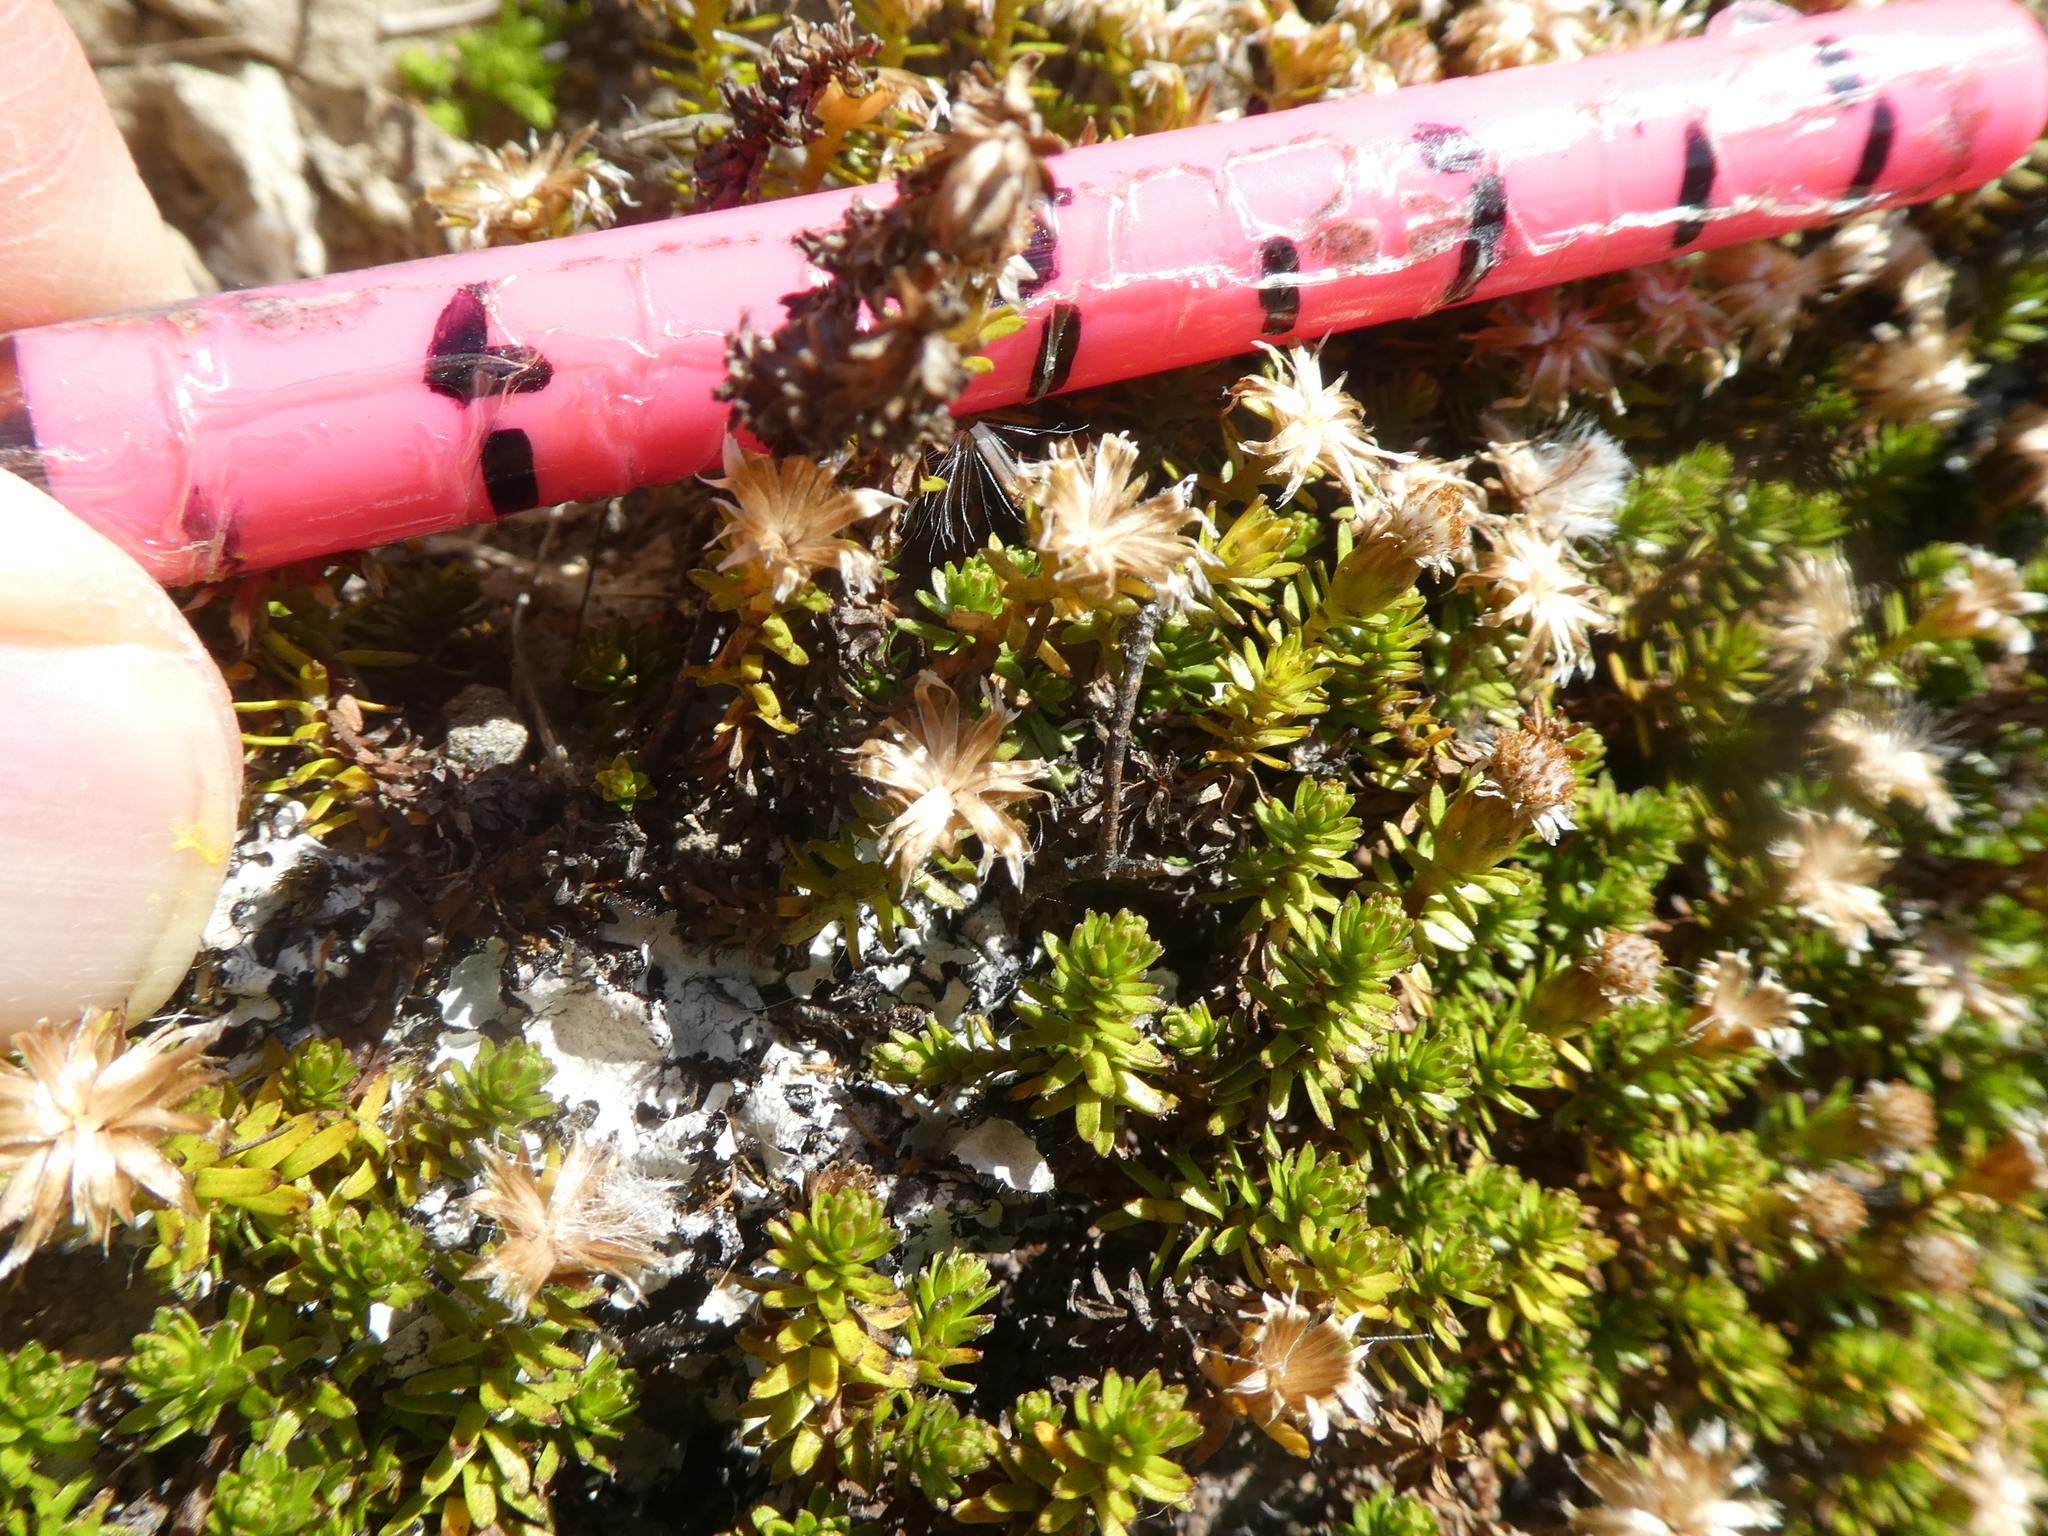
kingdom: Plantae
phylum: Tracheophyta
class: Magnoliopsida
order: Asterales
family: Asteraceae
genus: Raoulia
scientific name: Raoulia glabra
